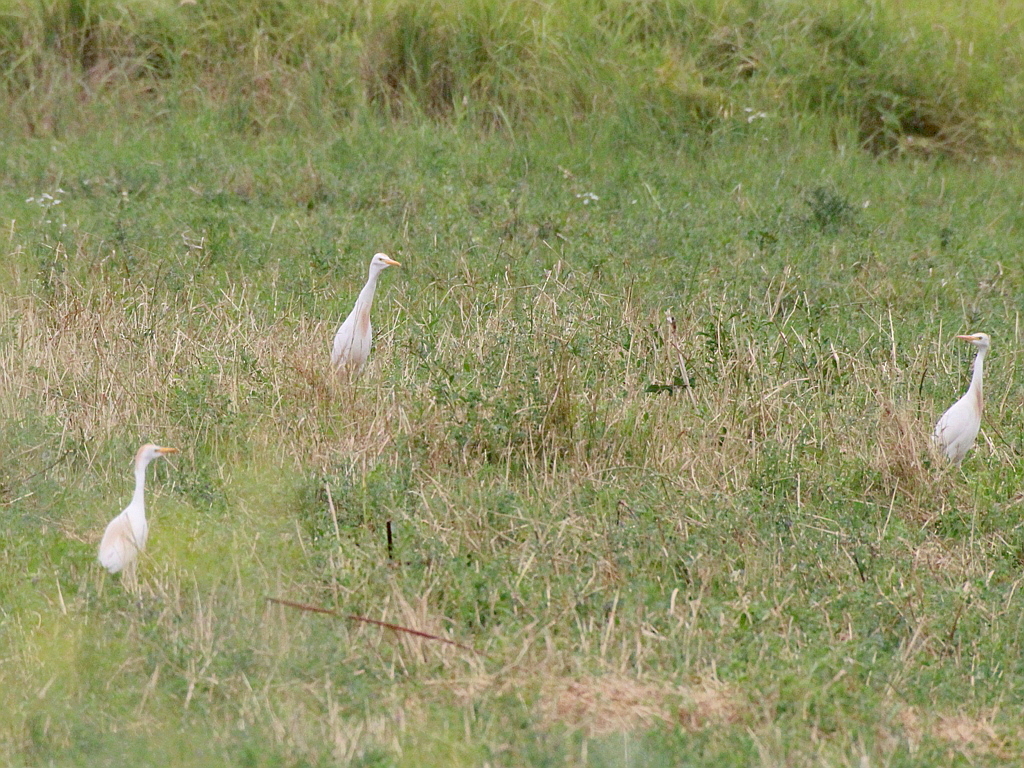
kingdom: Animalia
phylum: Chordata
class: Aves
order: Pelecaniformes
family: Ardeidae
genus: Bubulcus
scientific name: Bubulcus ibis
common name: Cattle egret
